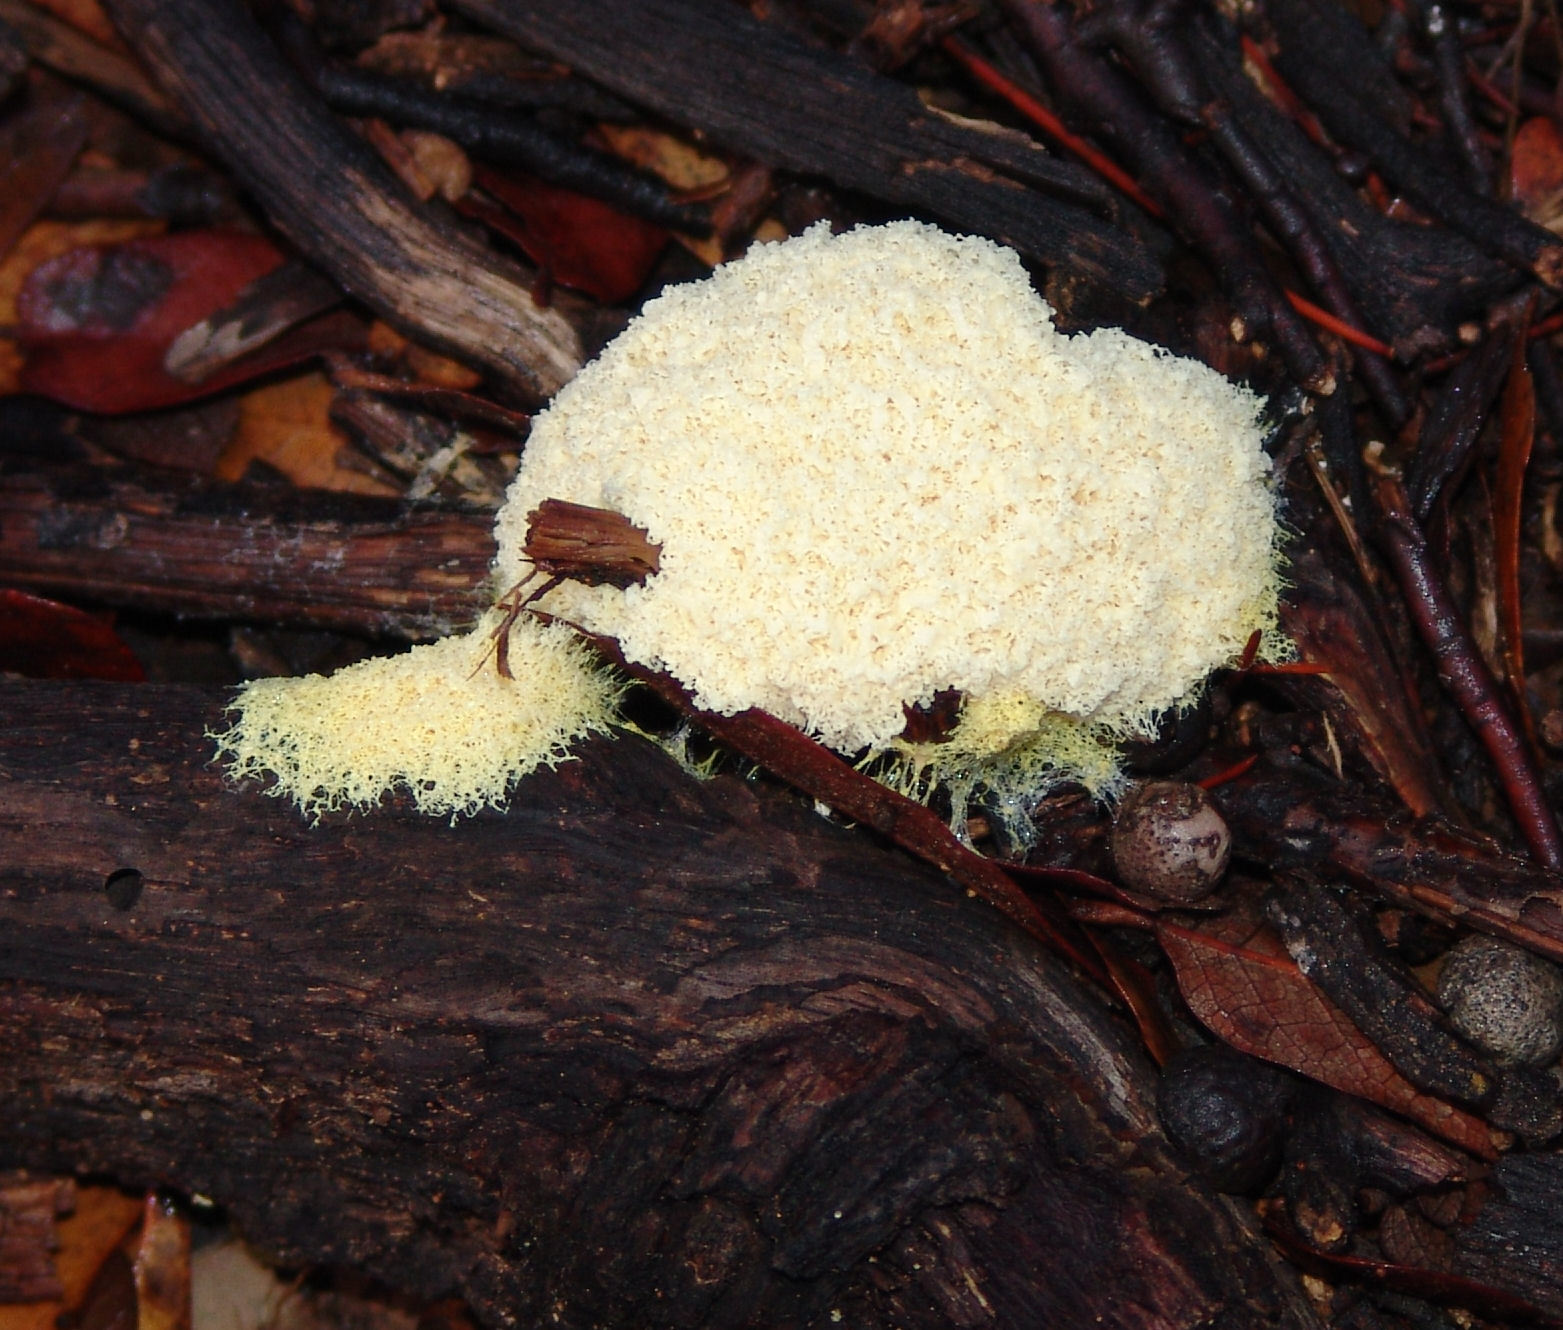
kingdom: Protozoa
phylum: Mycetozoa
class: Myxomycetes
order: Physarales
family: Physaraceae
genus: Fuligo
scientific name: Fuligo septica
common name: Dog vomit slime mold
